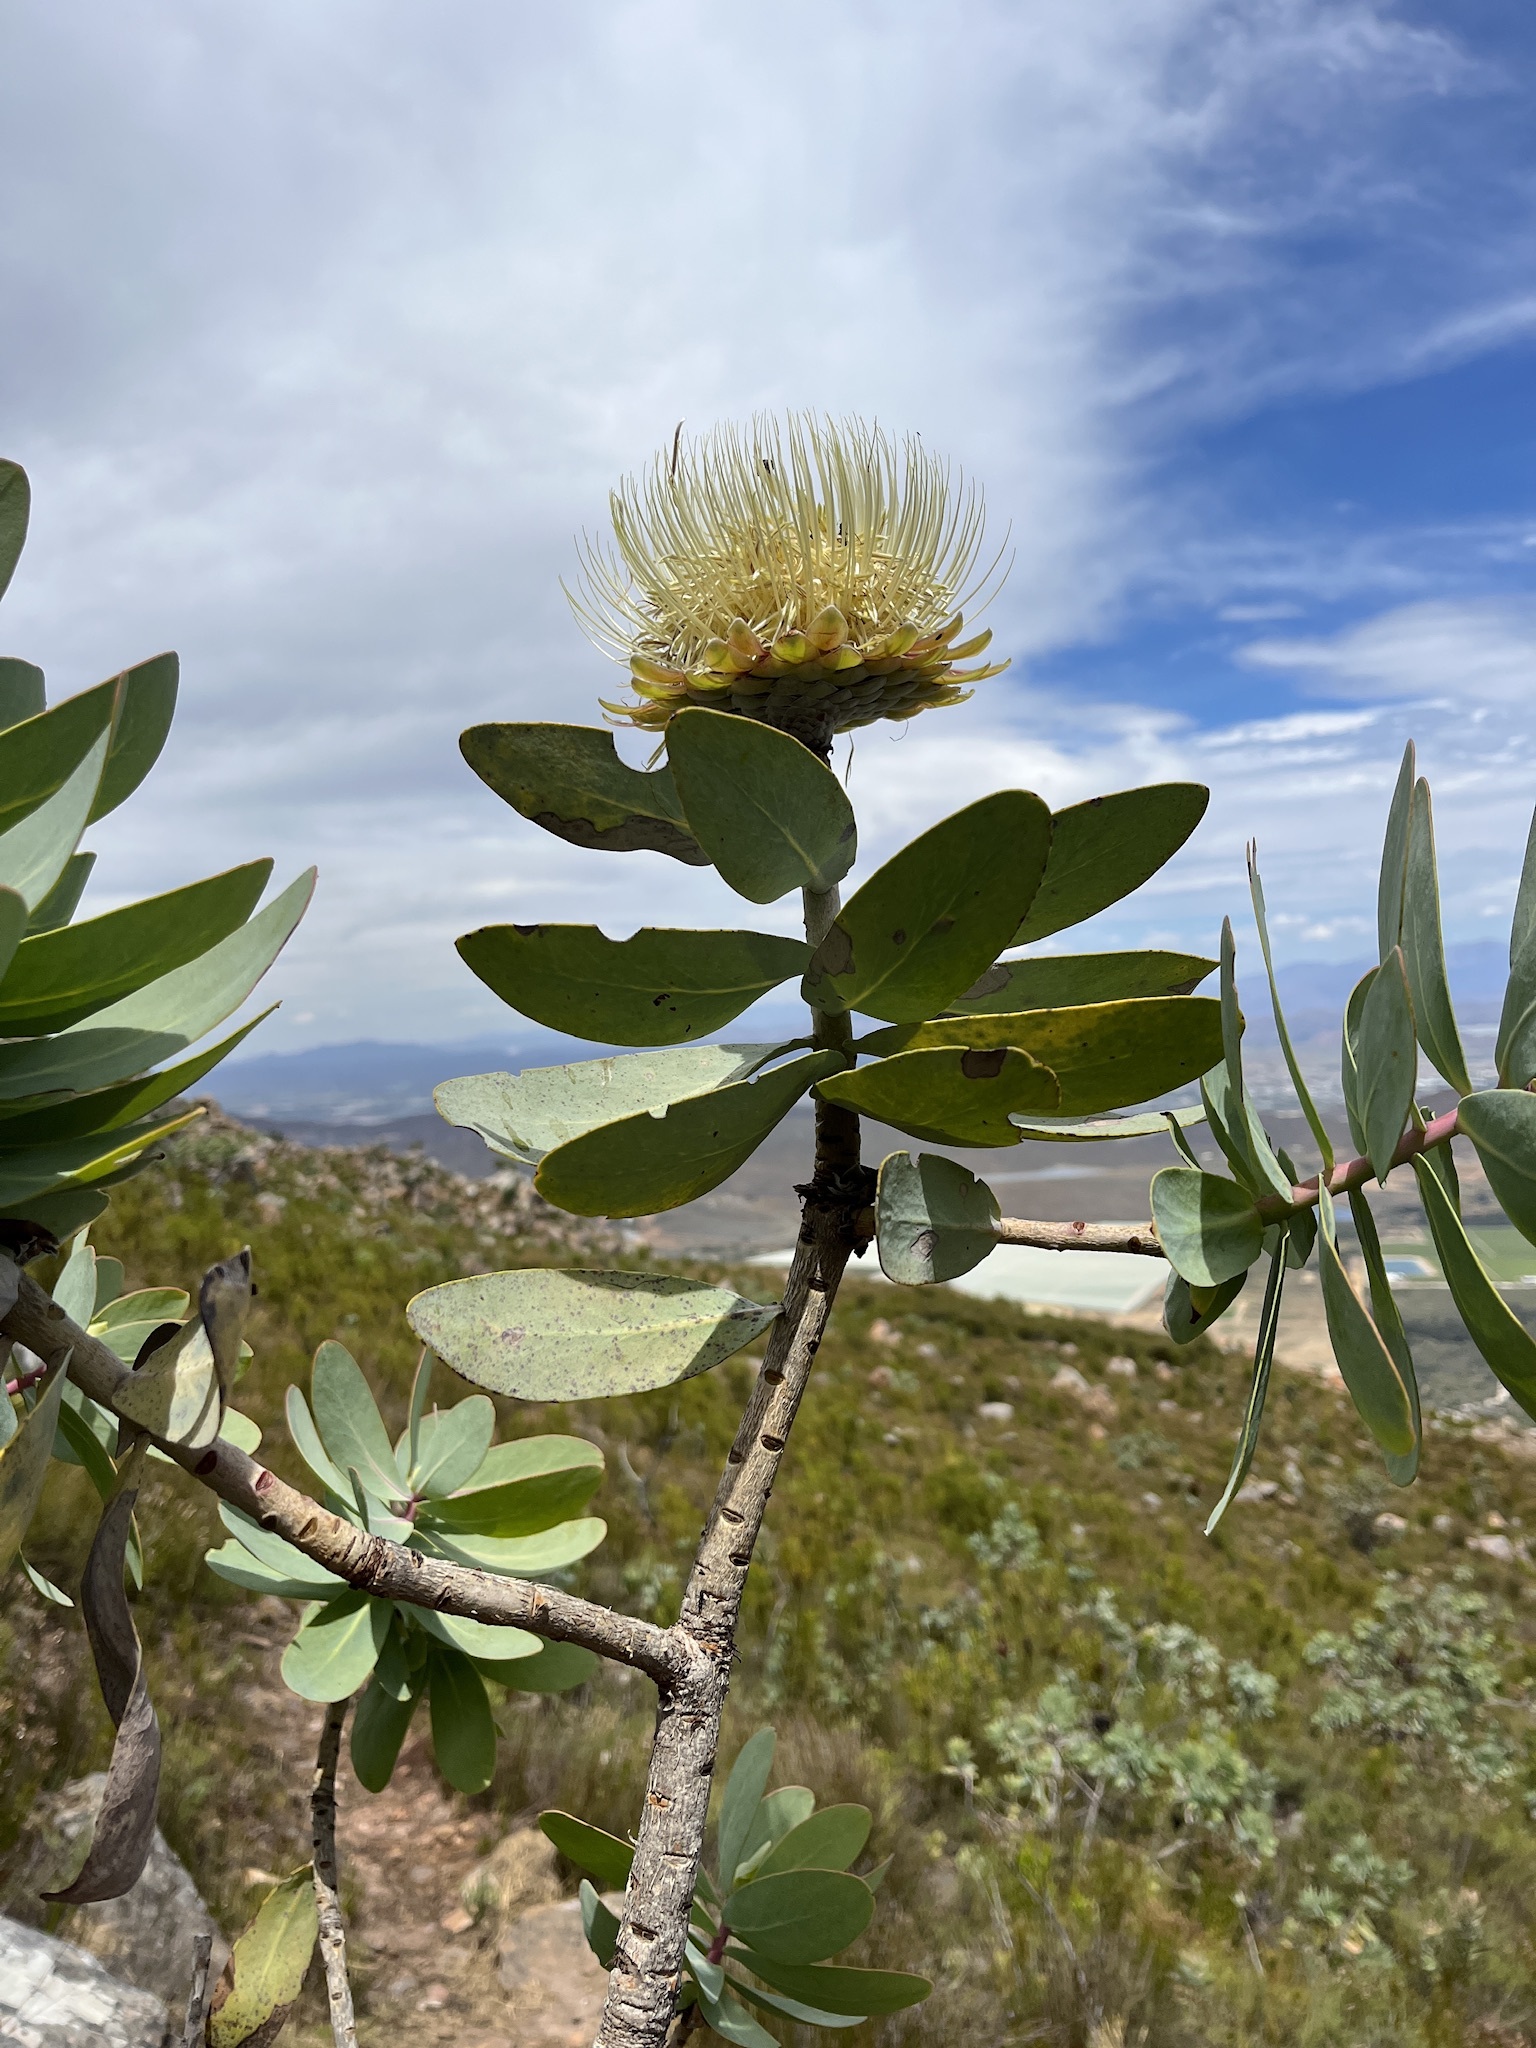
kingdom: Plantae
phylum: Tracheophyta
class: Magnoliopsida
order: Proteales
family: Proteaceae
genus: Protea
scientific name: Protea nitida
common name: Tree protea
